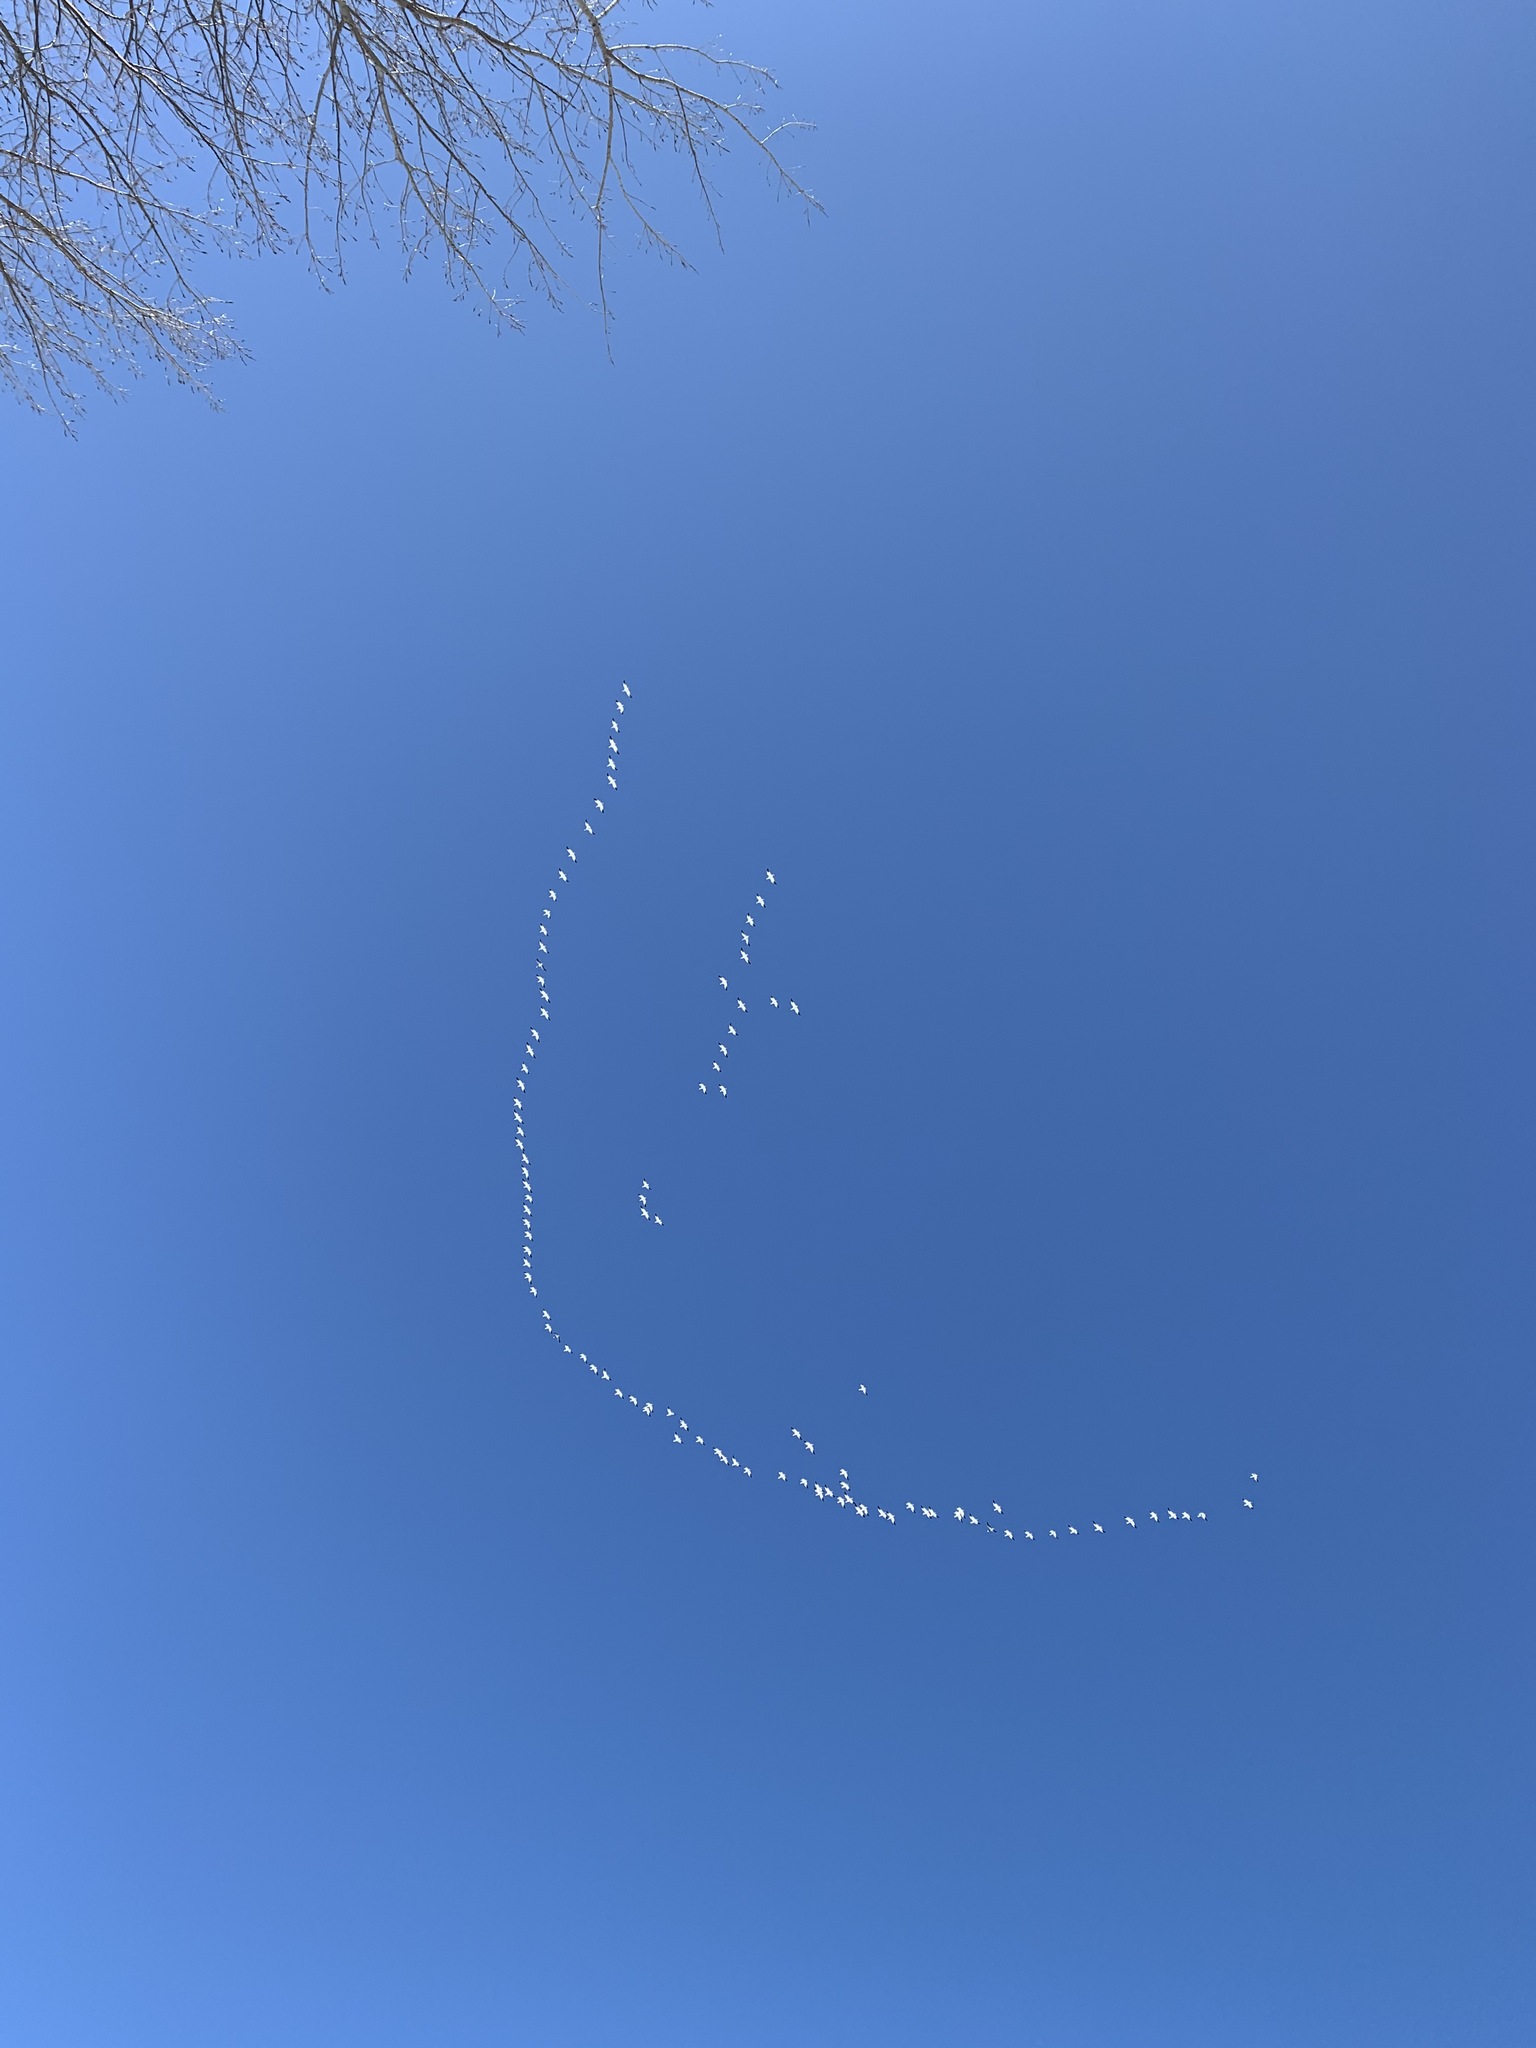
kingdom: Animalia
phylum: Chordata
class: Aves
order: Anseriformes
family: Anatidae
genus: Anser
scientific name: Anser caerulescens
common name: Snow goose
